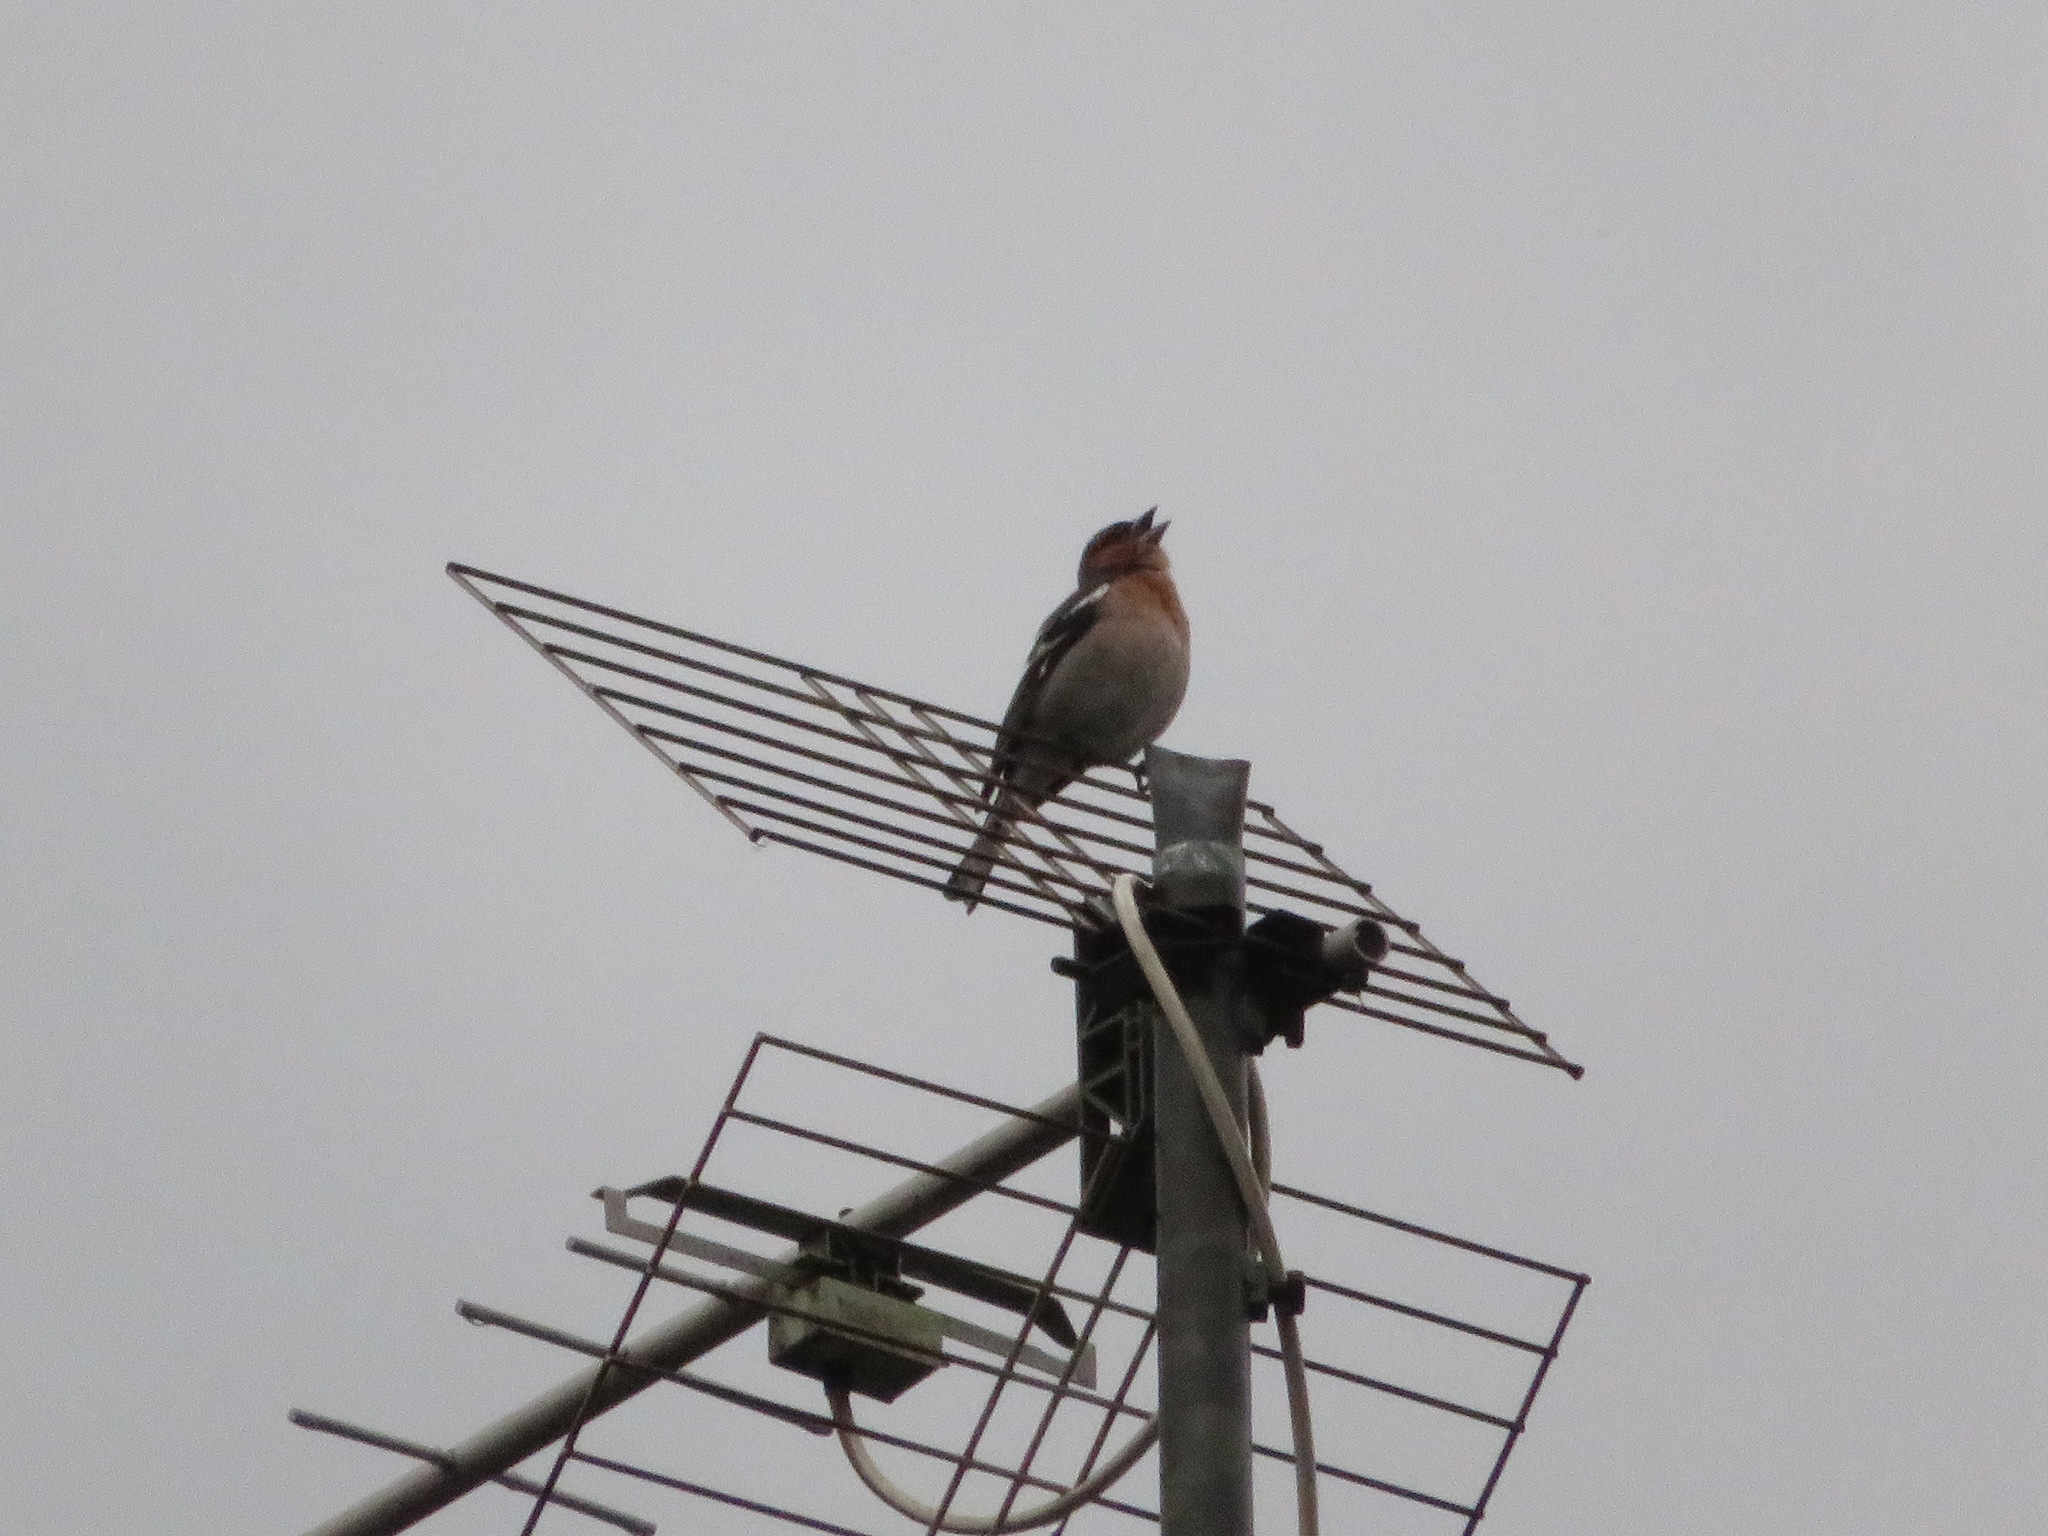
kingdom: Animalia
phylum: Chordata
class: Aves
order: Passeriformes
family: Fringillidae
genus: Fringilla
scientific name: Fringilla coelebs
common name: Common chaffinch
